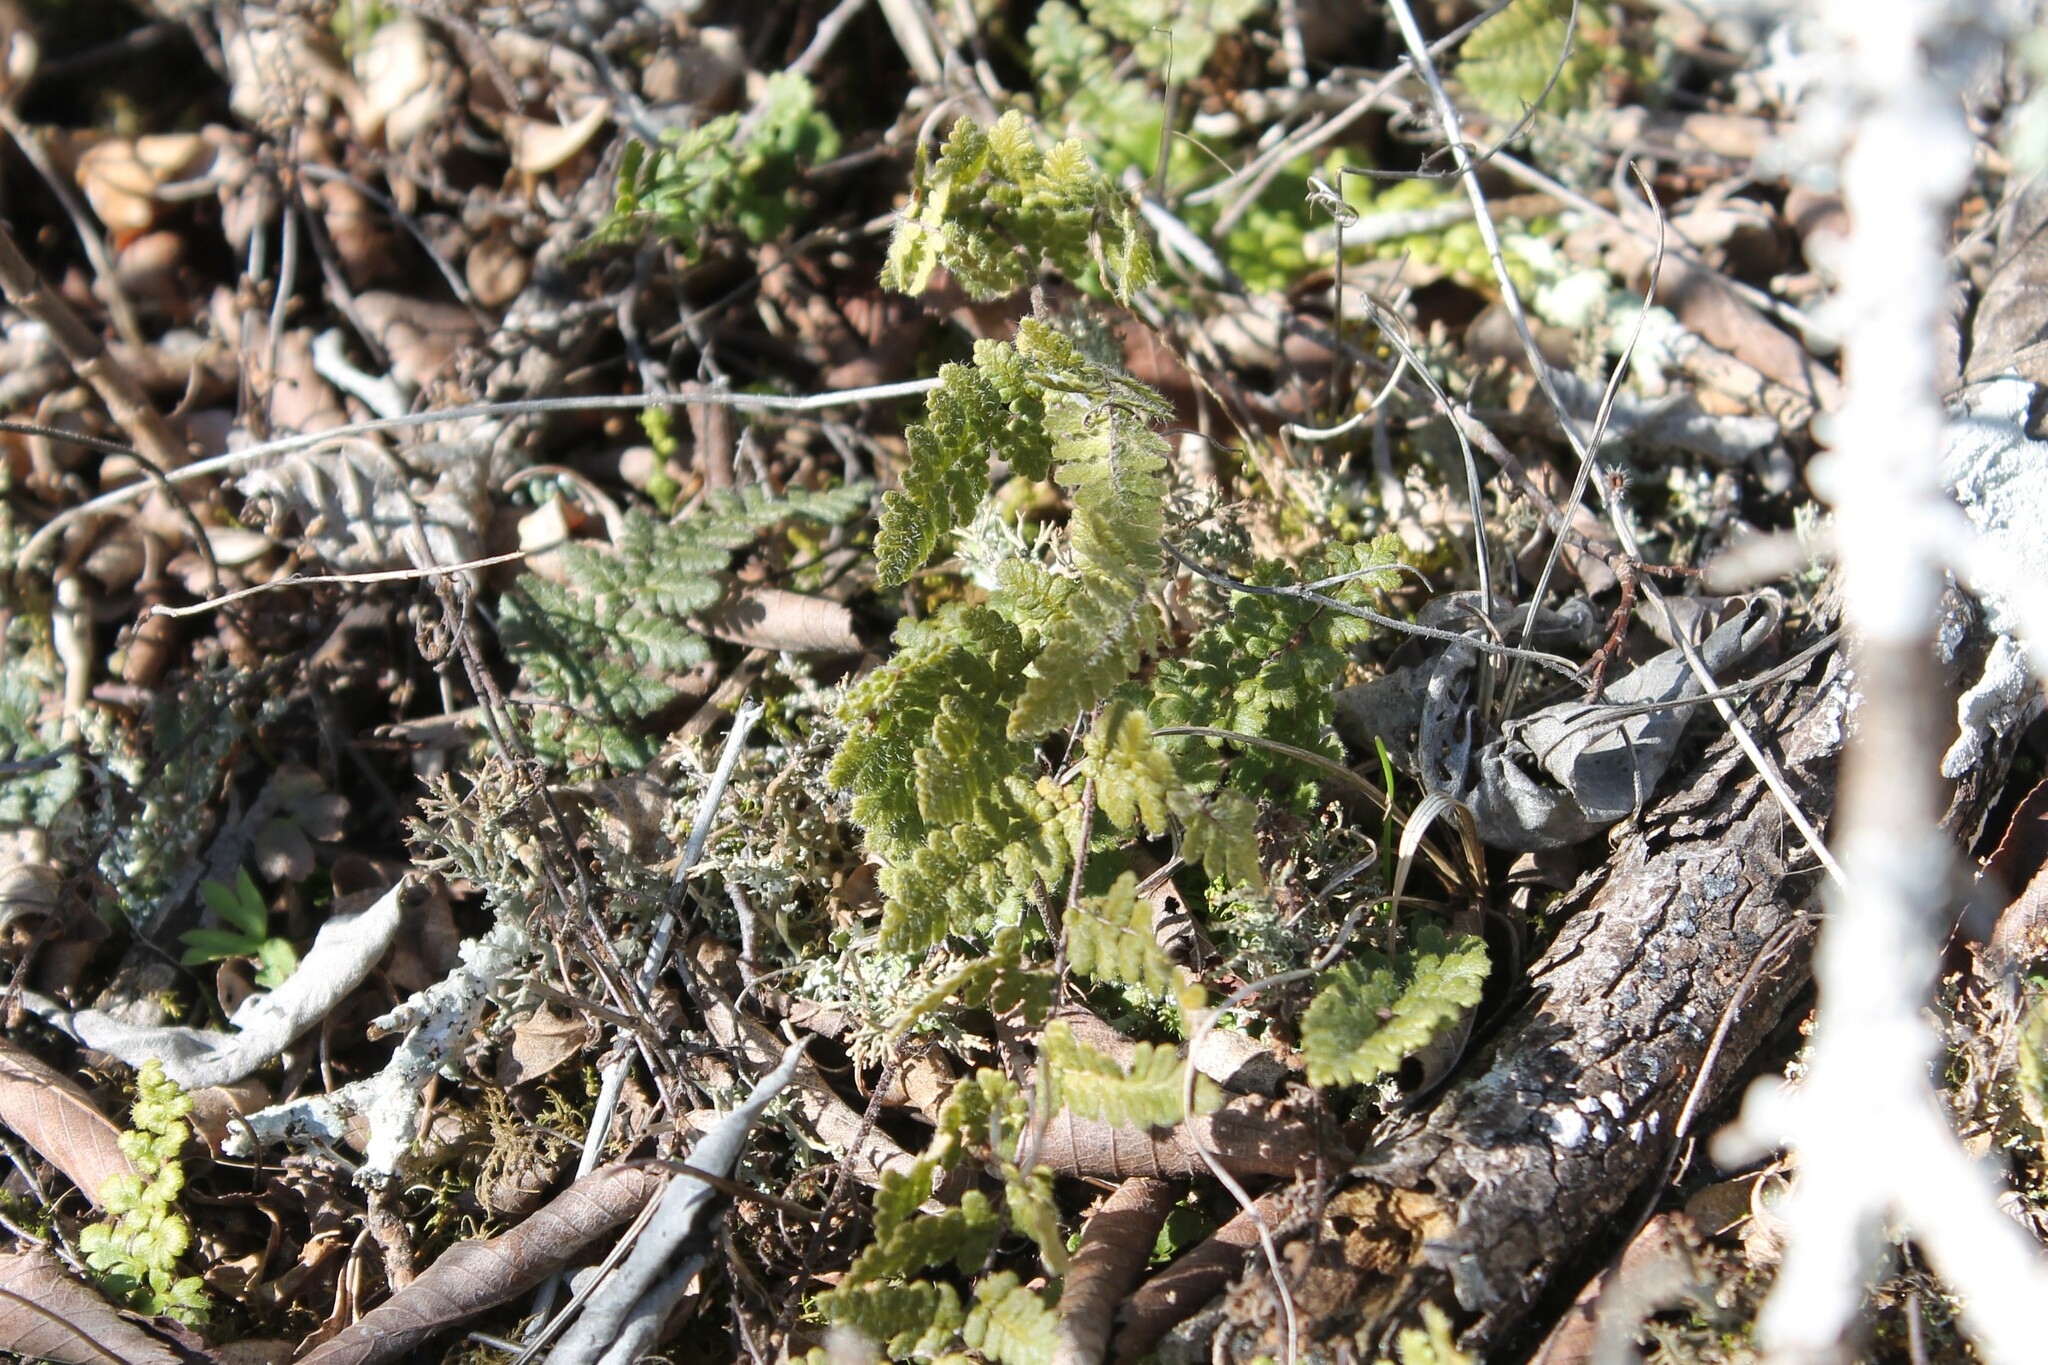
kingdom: Plantae
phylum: Tracheophyta
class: Polypodiopsida
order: Polypodiales
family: Pteridaceae
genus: Myriopteris
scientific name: Myriopteris lanosa
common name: Hairy lip fern
